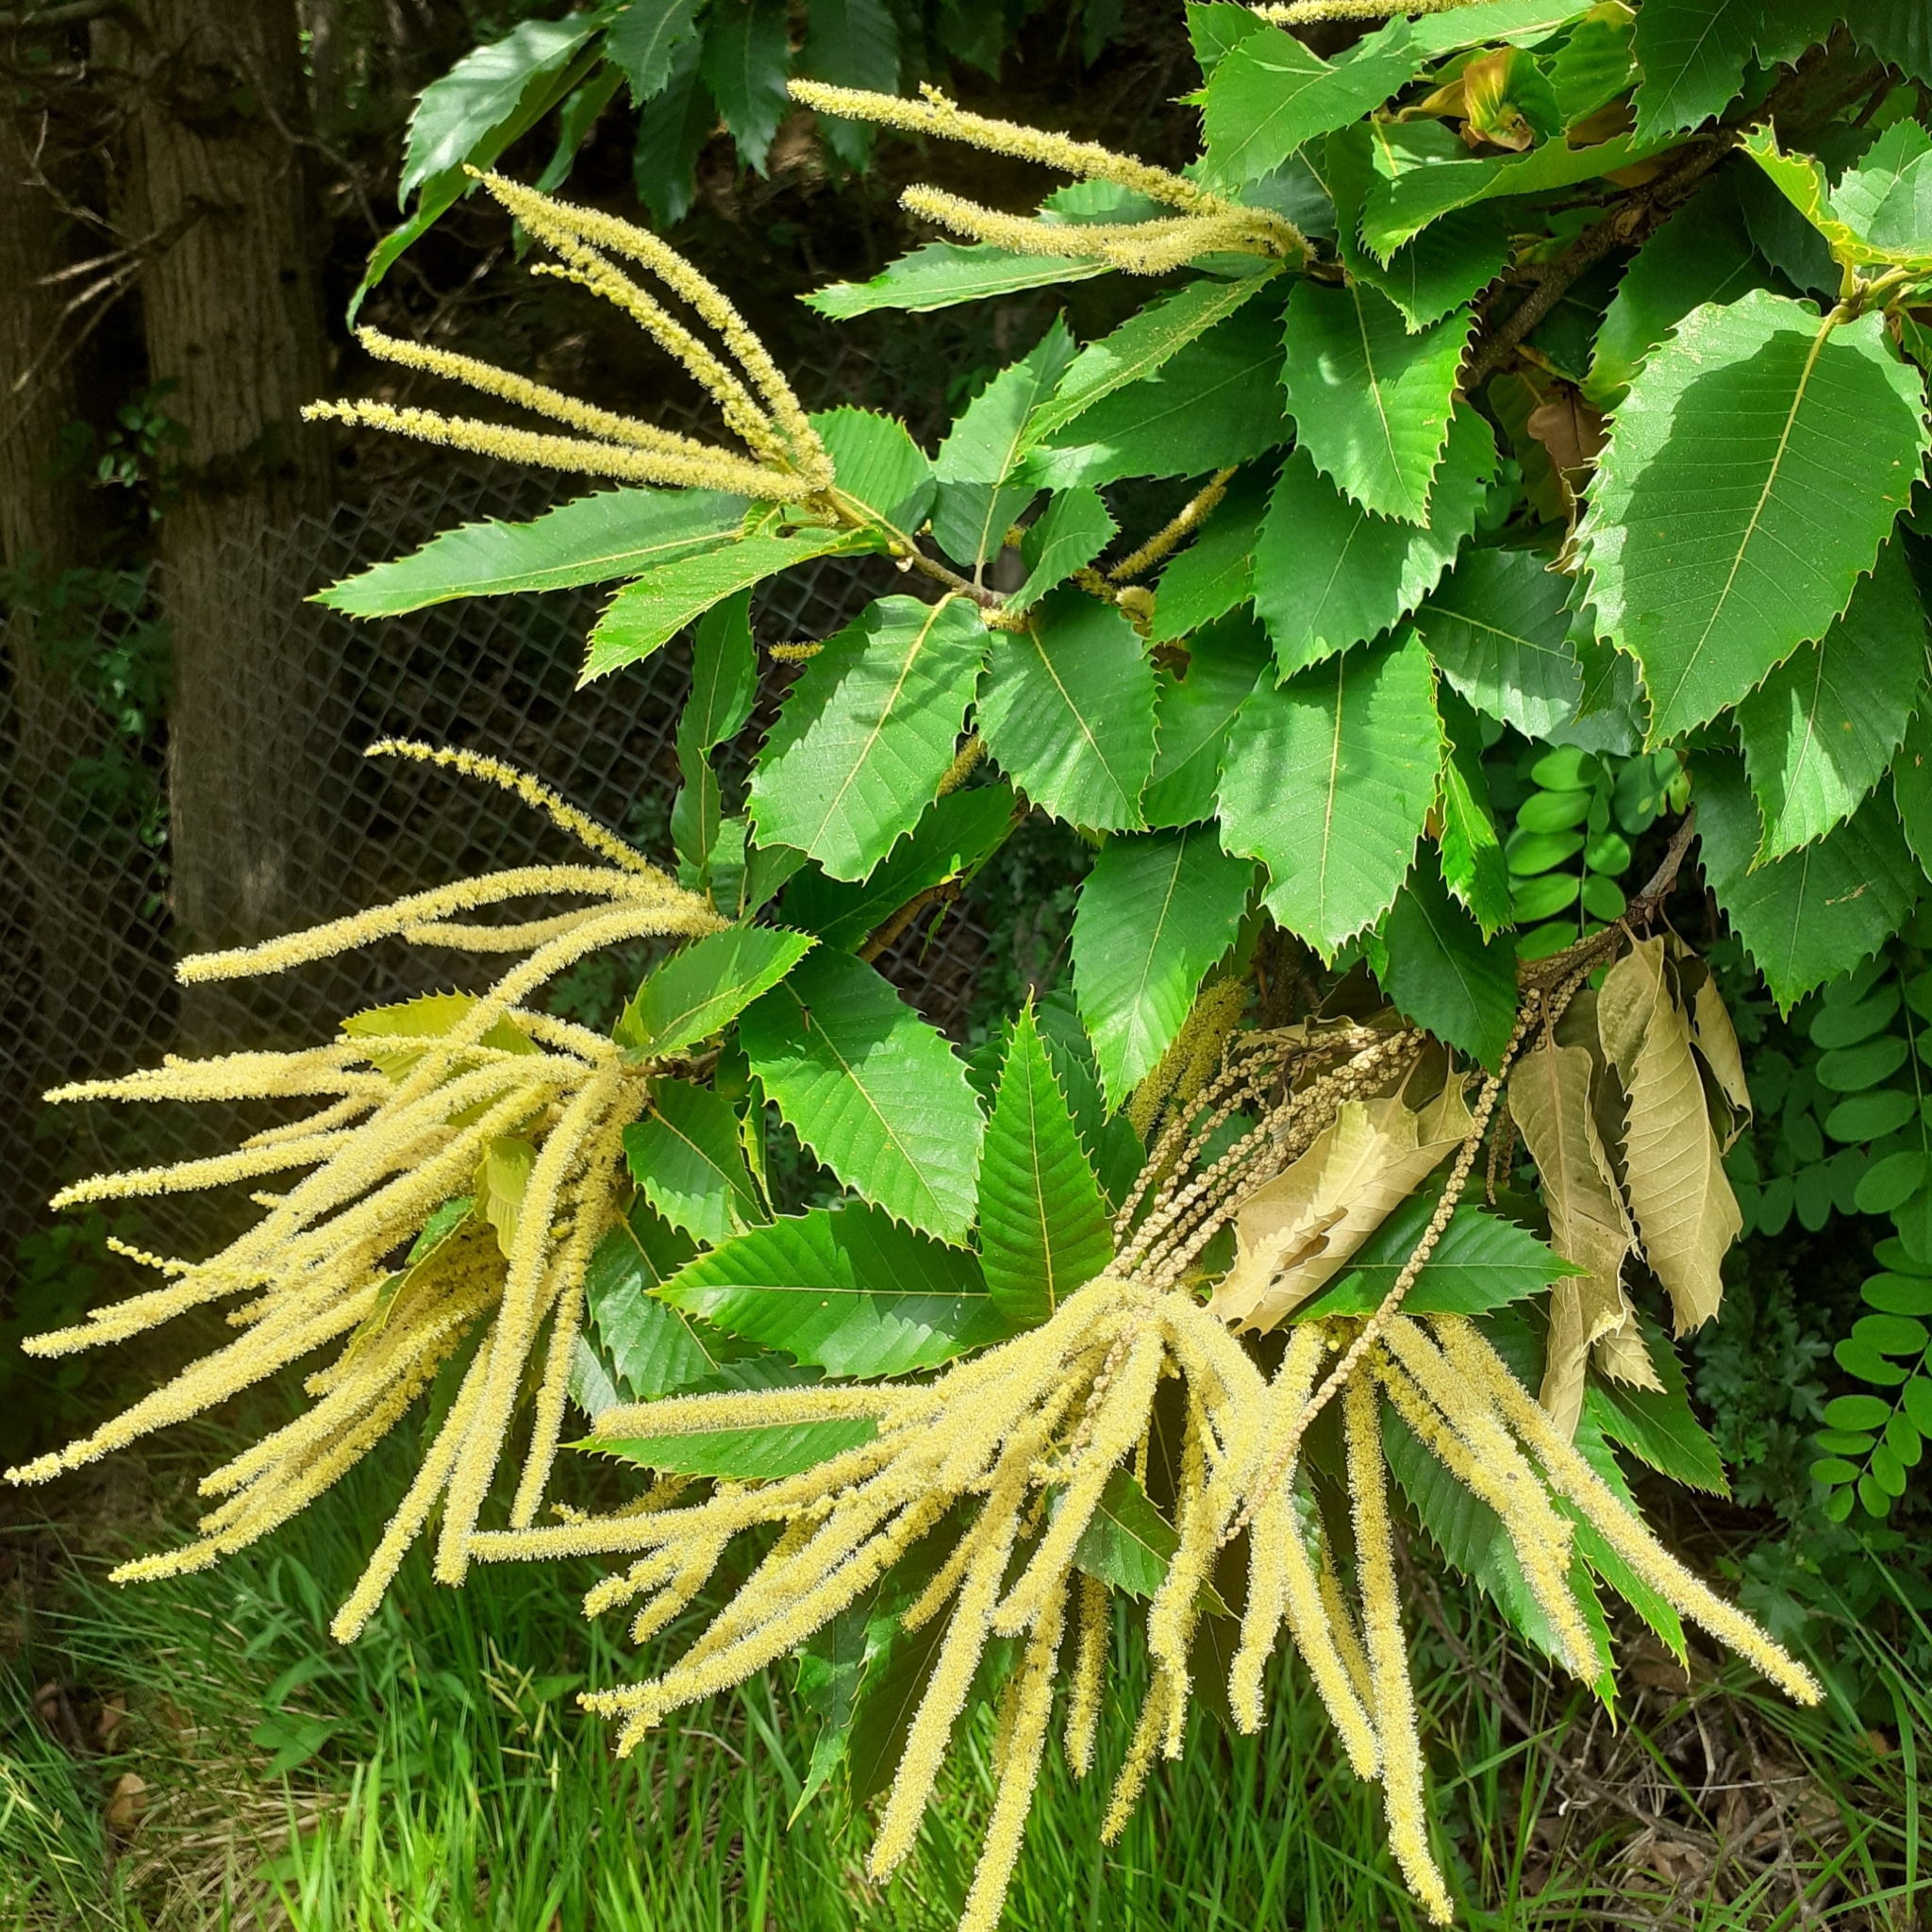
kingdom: Plantae
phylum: Tracheophyta
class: Magnoliopsida
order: Fagales
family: Fagaceae
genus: Castanea
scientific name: Castanea sativa
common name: Sweet chestnut
